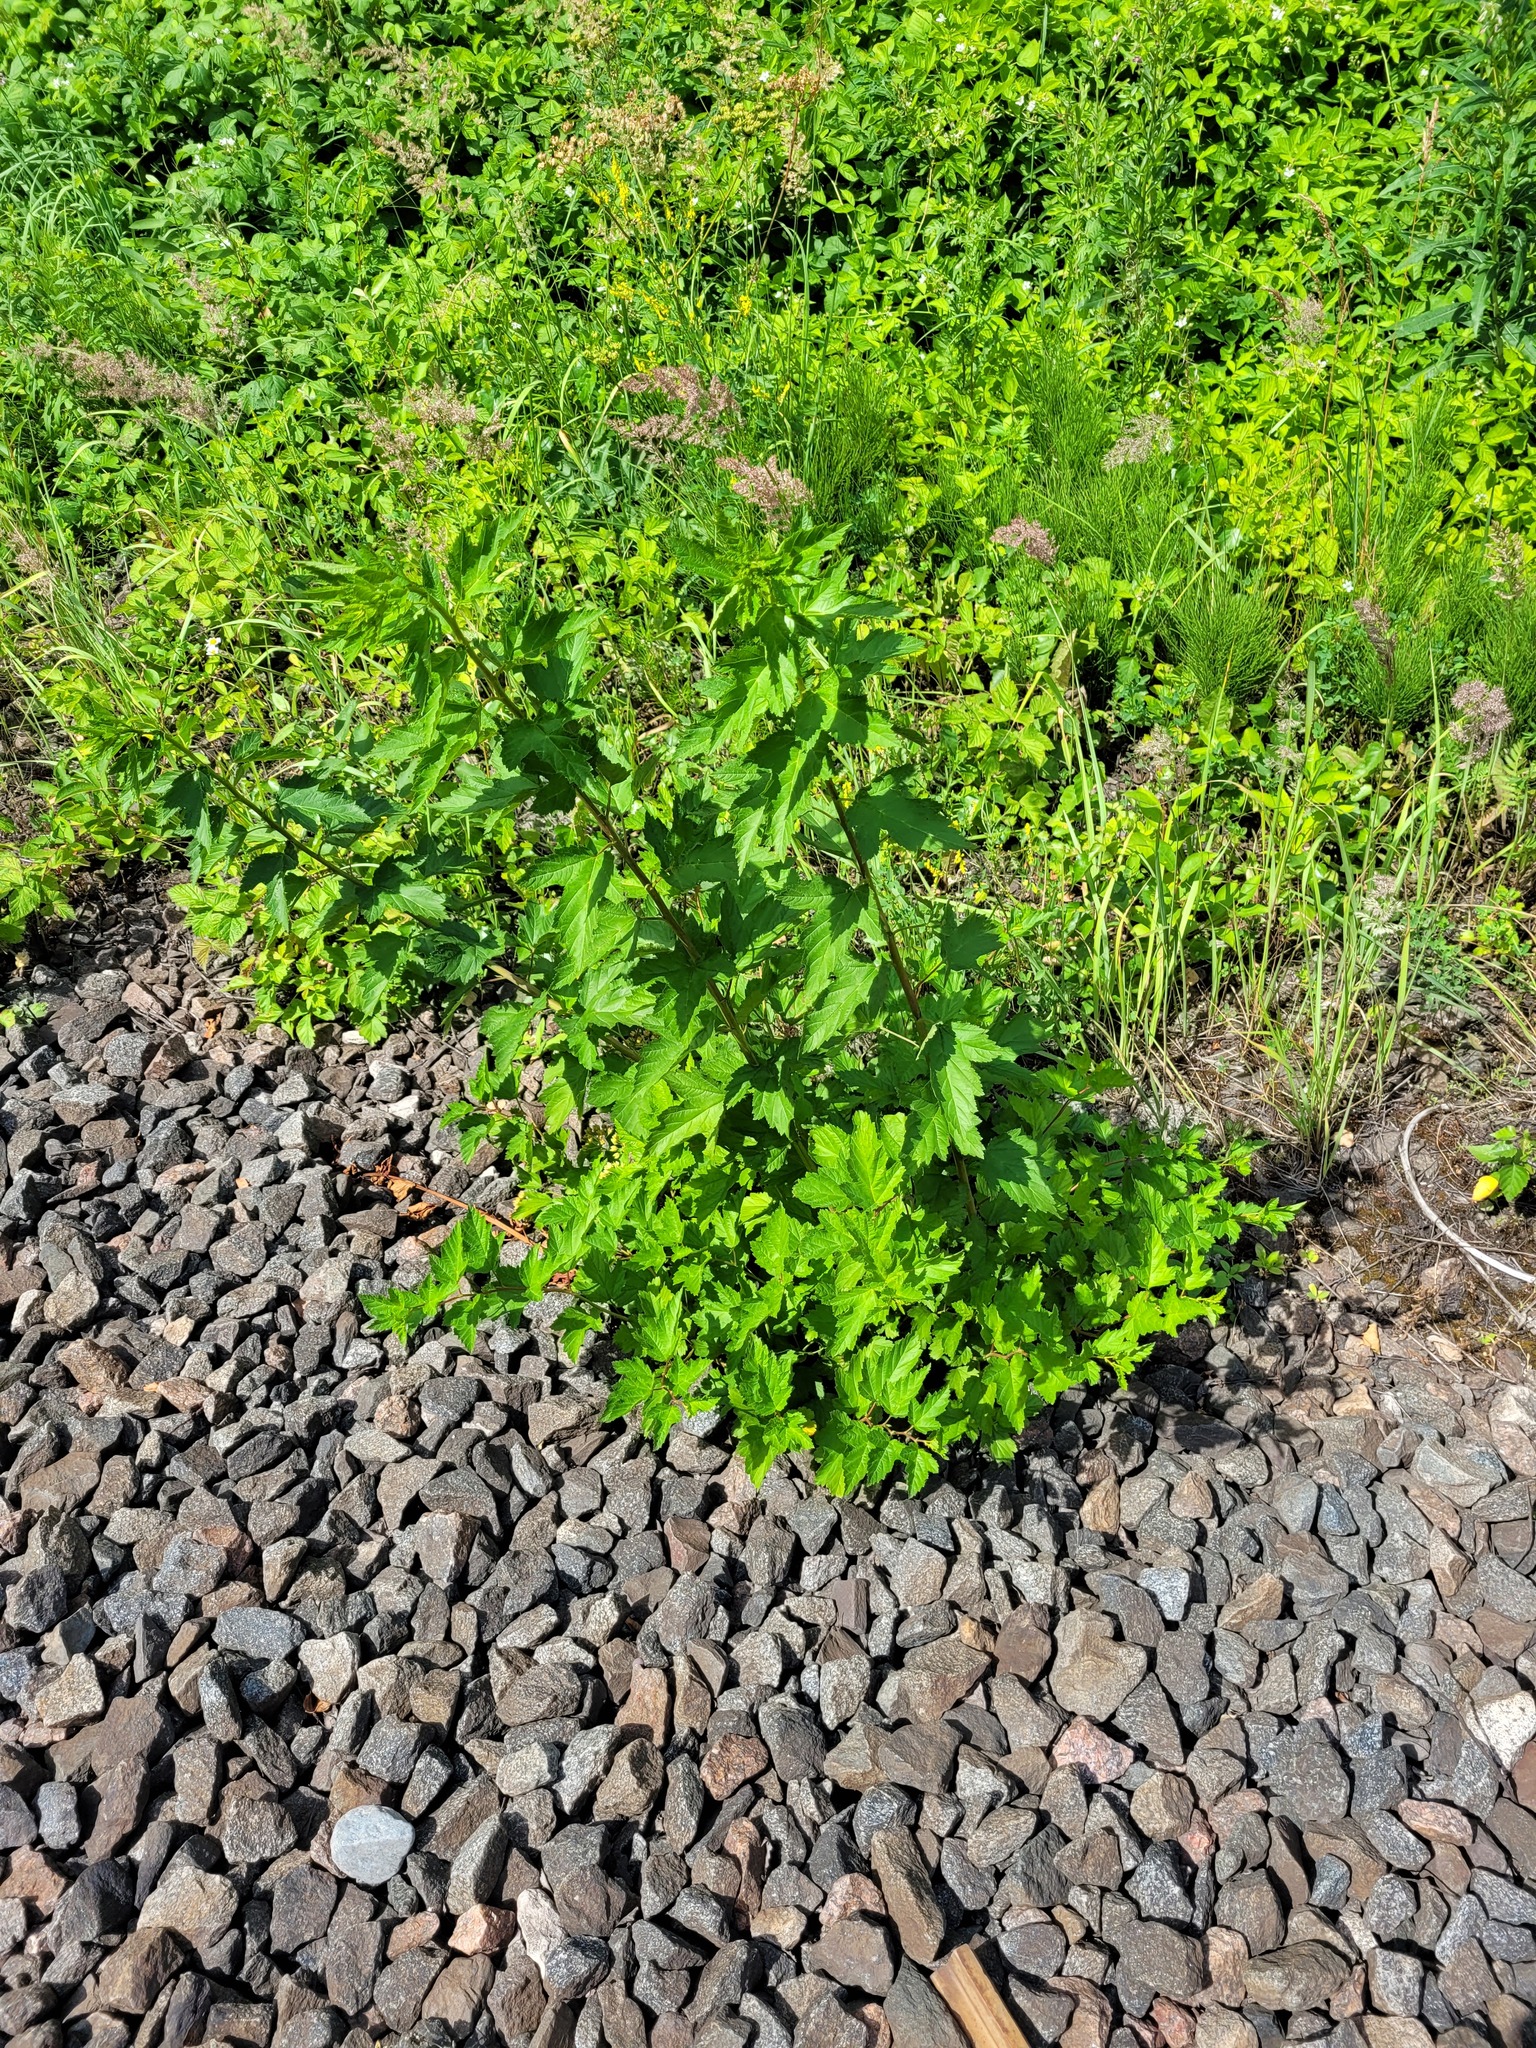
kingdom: Plantae
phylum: Tracheophyta
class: Magnoliopsida
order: Rosales
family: Rosaceae
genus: Physocarpus
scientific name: Physocarpus opulifolius
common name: Ninebark
